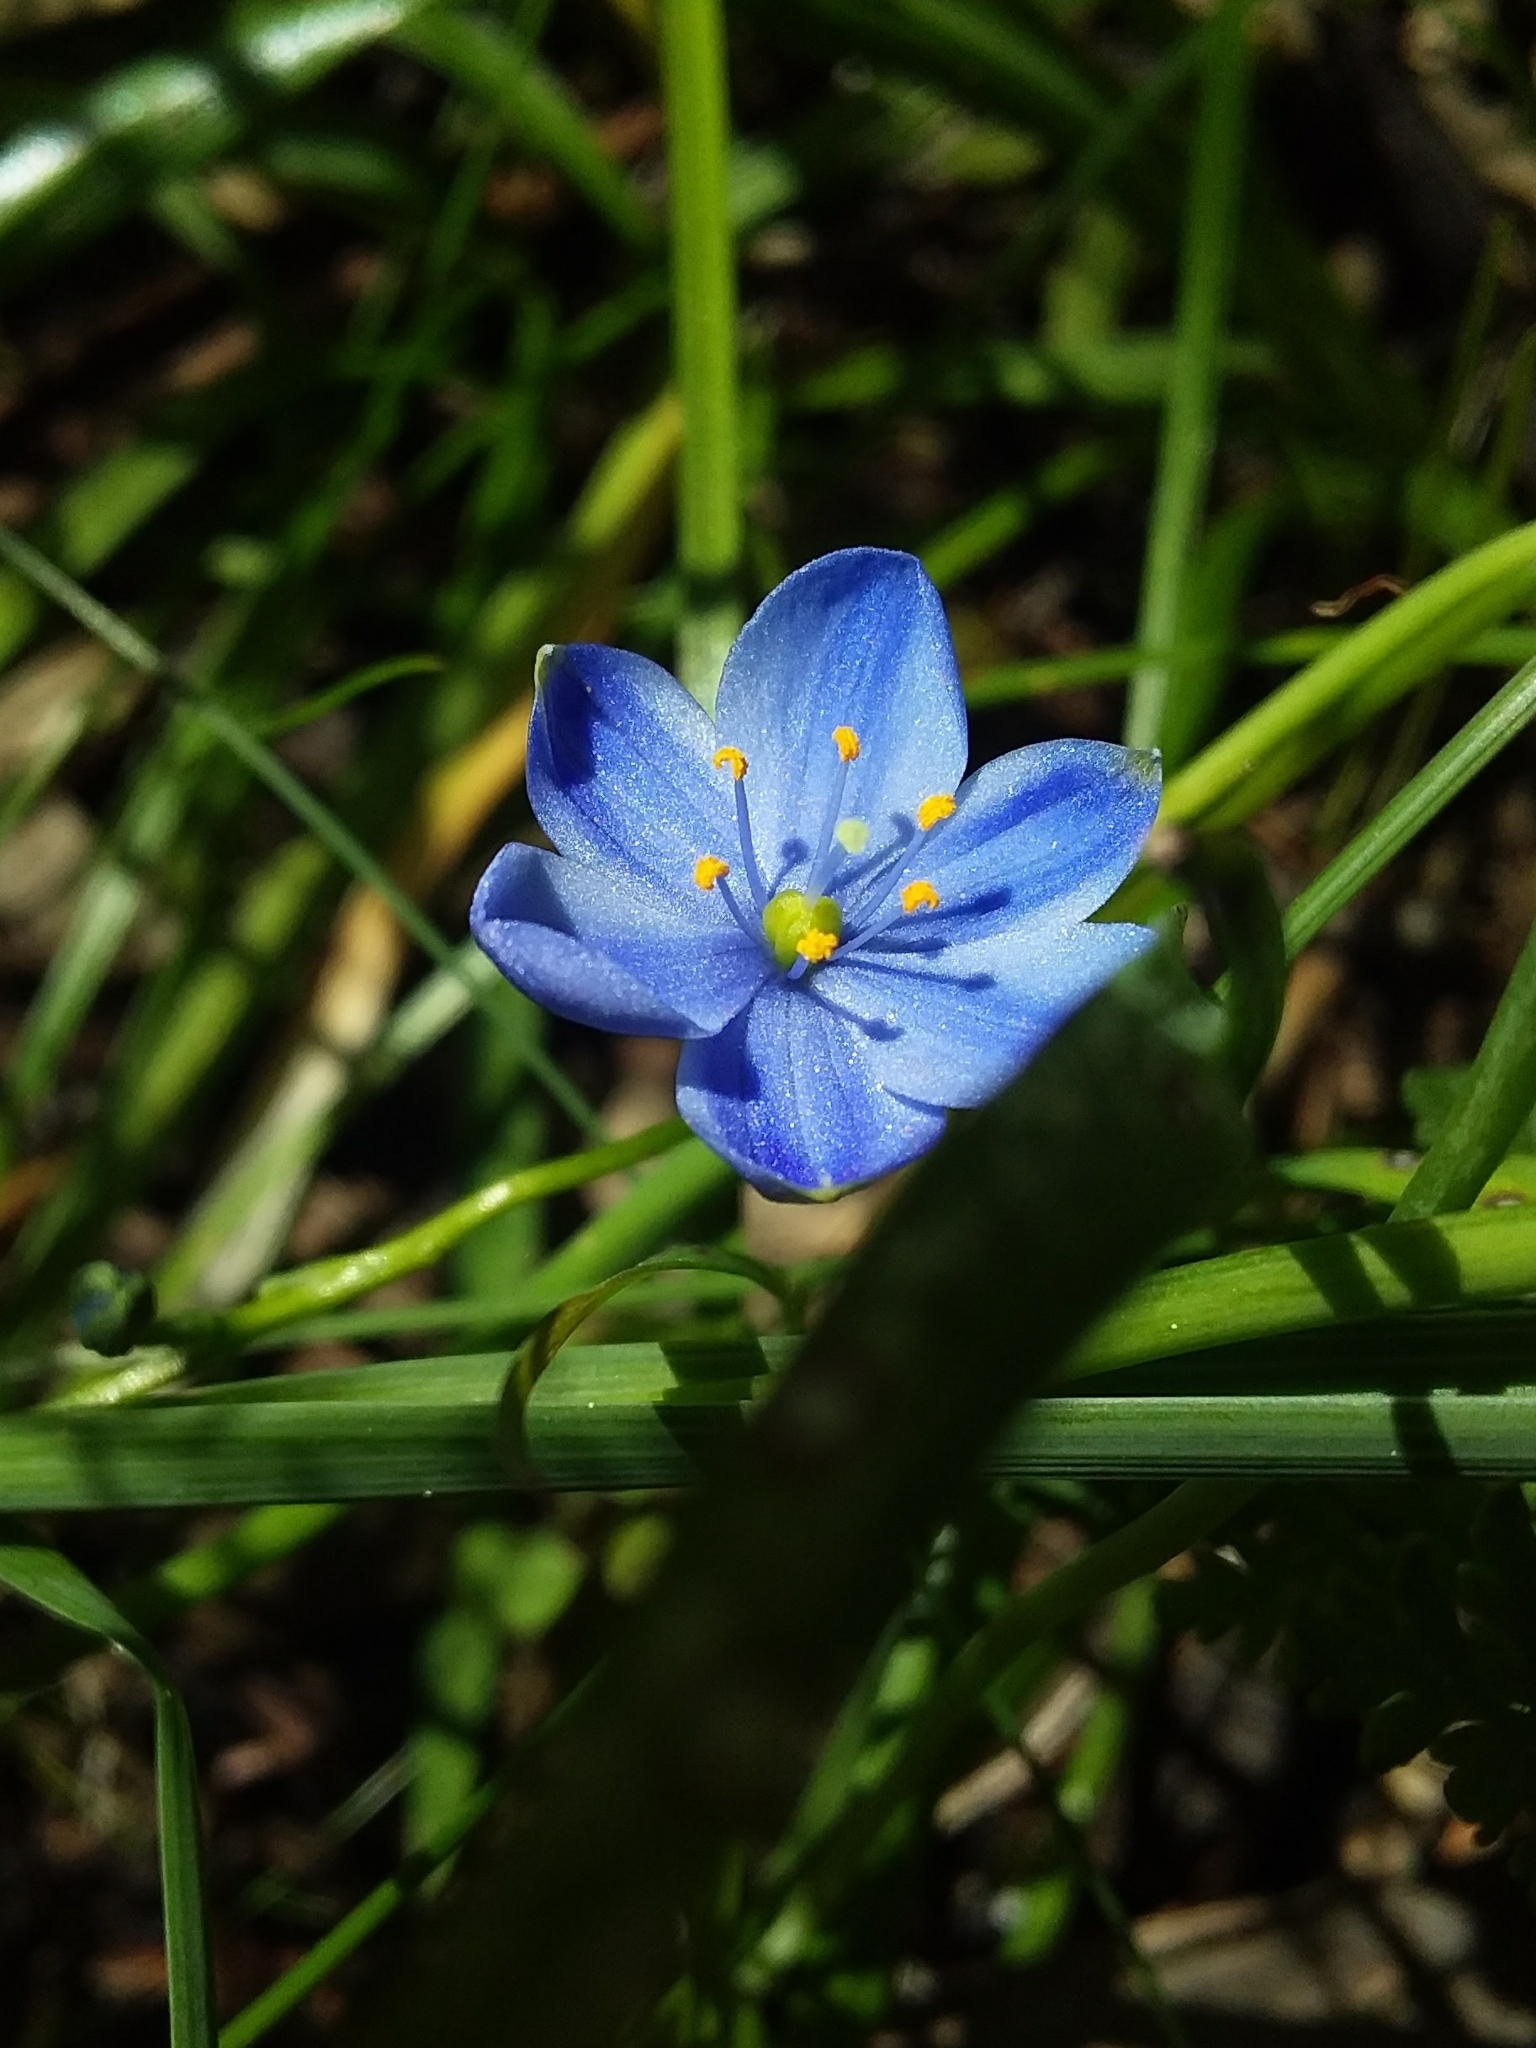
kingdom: Plantae
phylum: Tracheophyta
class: Liliopsida
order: Asparagales
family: Asphodelaceae
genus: Chamaescilla
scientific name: Chamaescilla corymbosa
